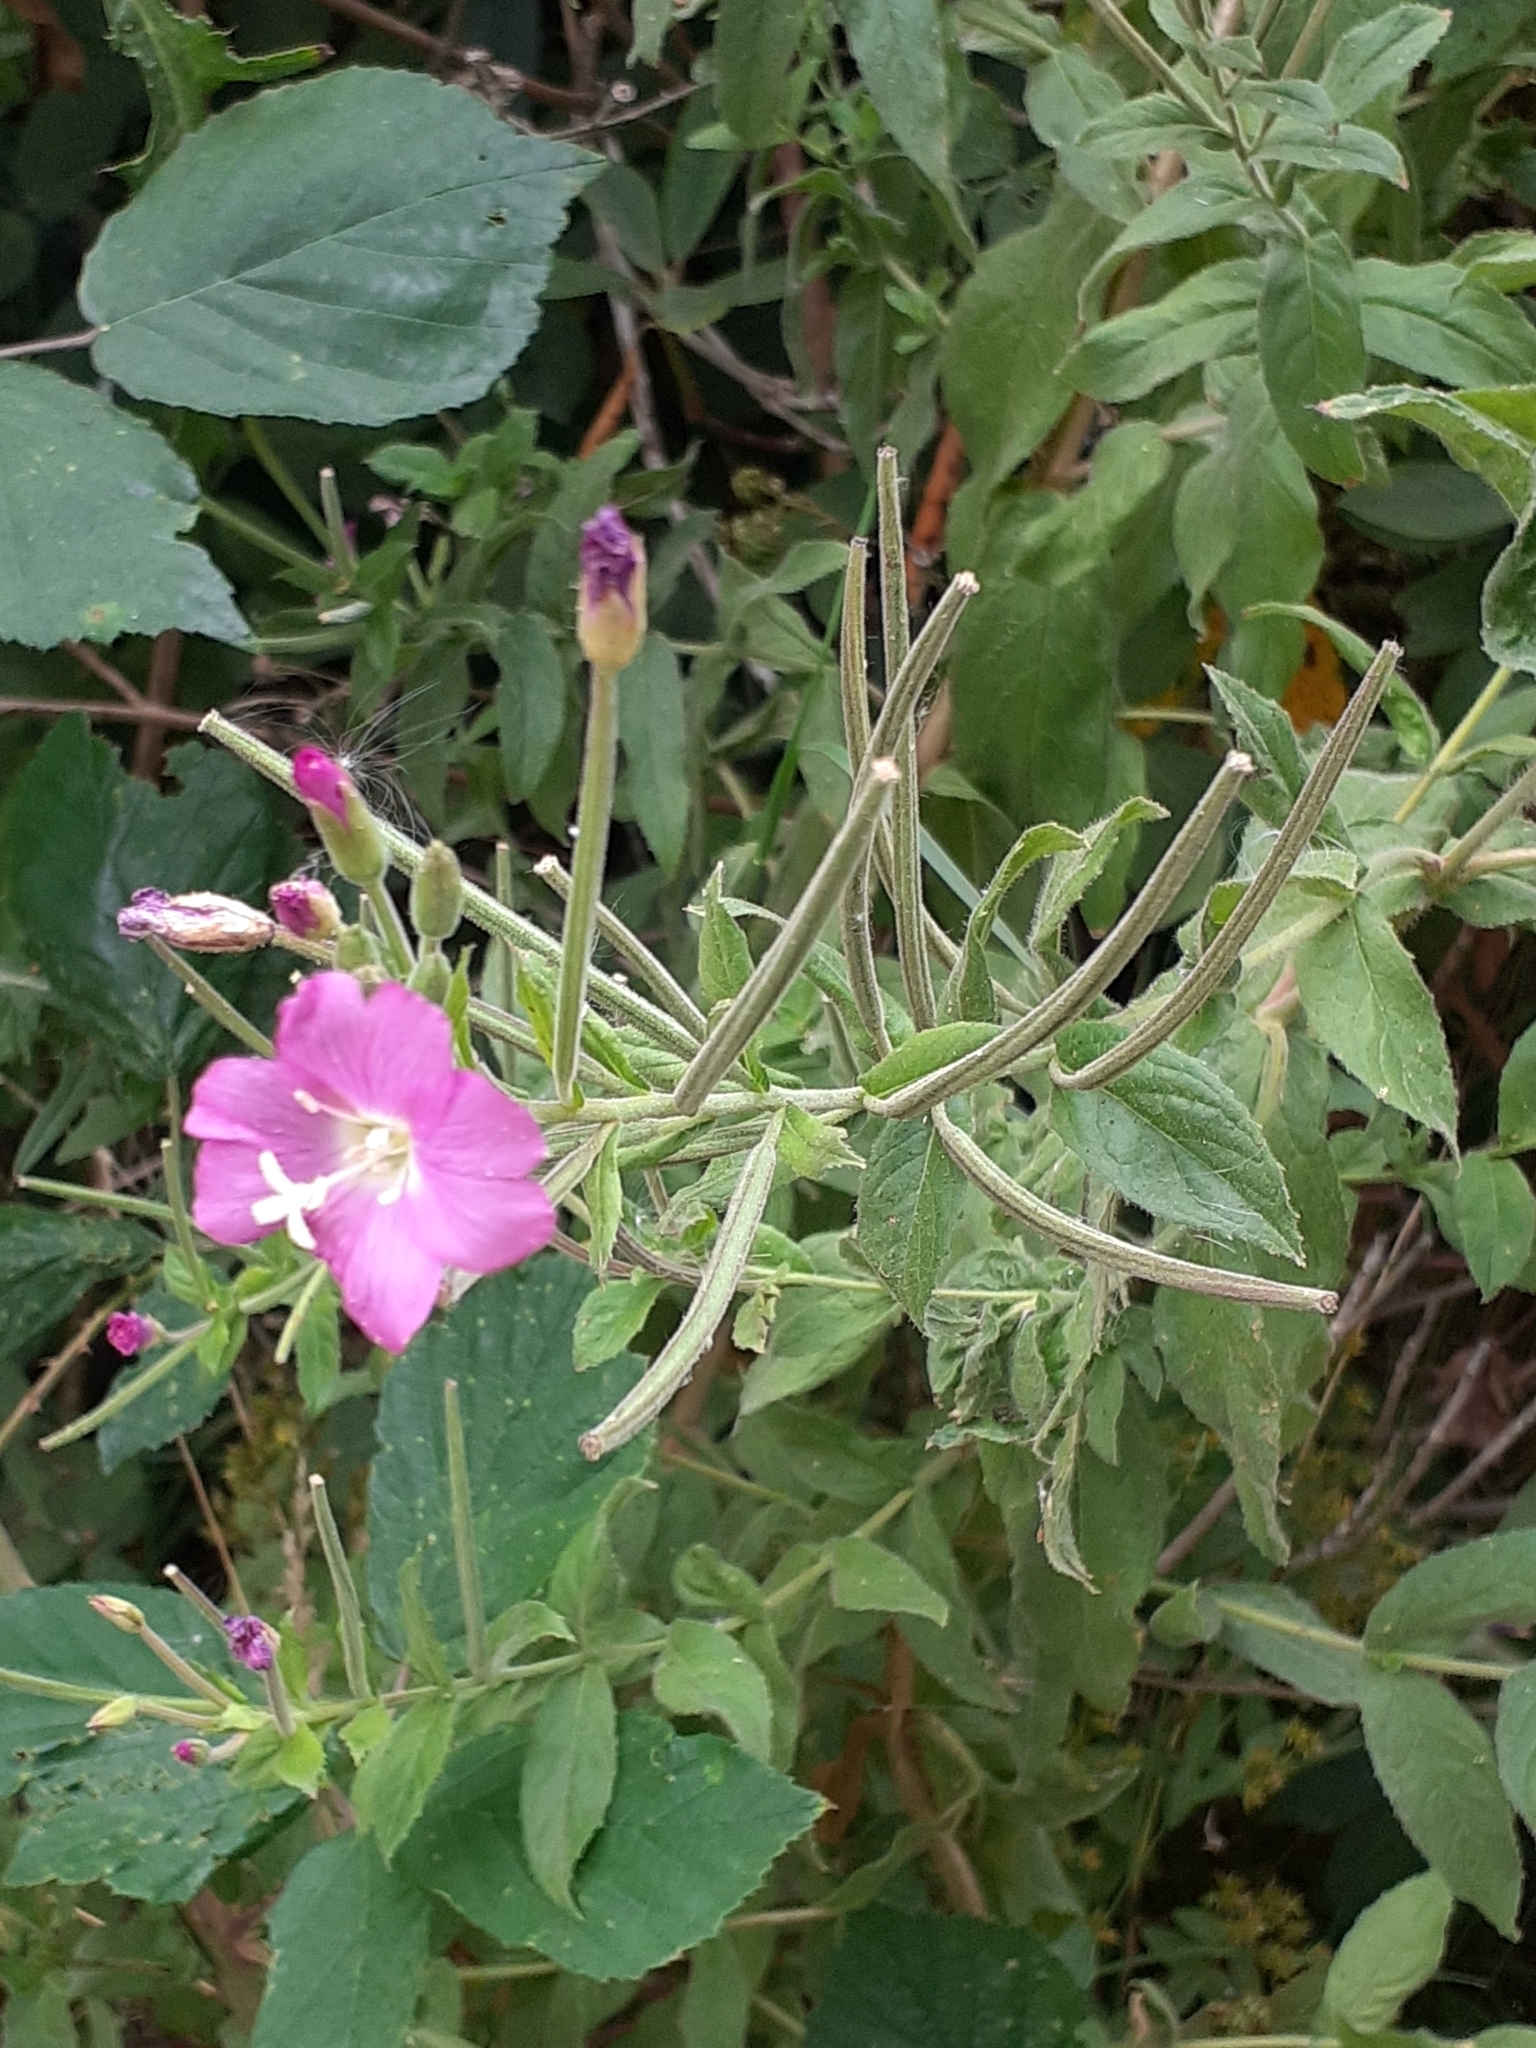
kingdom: Plantae
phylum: Tracheophyta
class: Magnoliopsida
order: Myrtales
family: Onagraceae
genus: Epilobium
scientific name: Epilobium hirsutum
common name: Great willowherb
